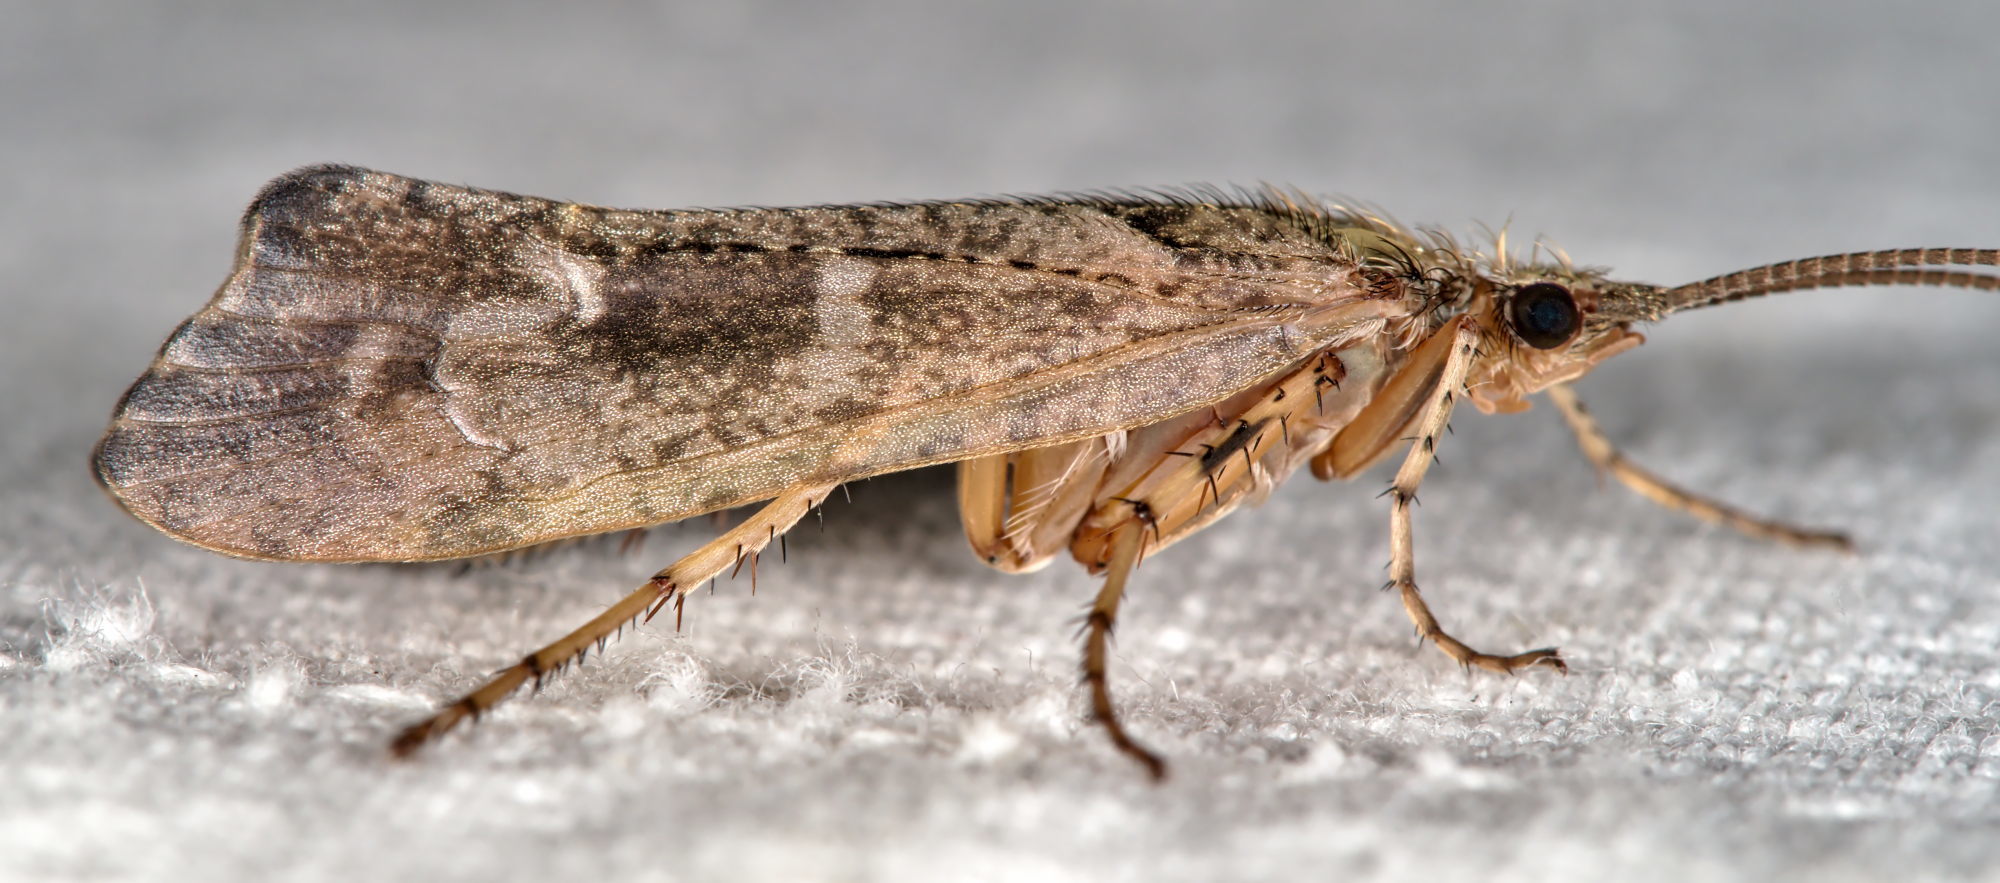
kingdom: Animalia
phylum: Arthropoda
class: Insecta
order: Trichoptera
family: Limnephilidae
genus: Glyphotaelius
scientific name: Glyphotaelius pellucidus
